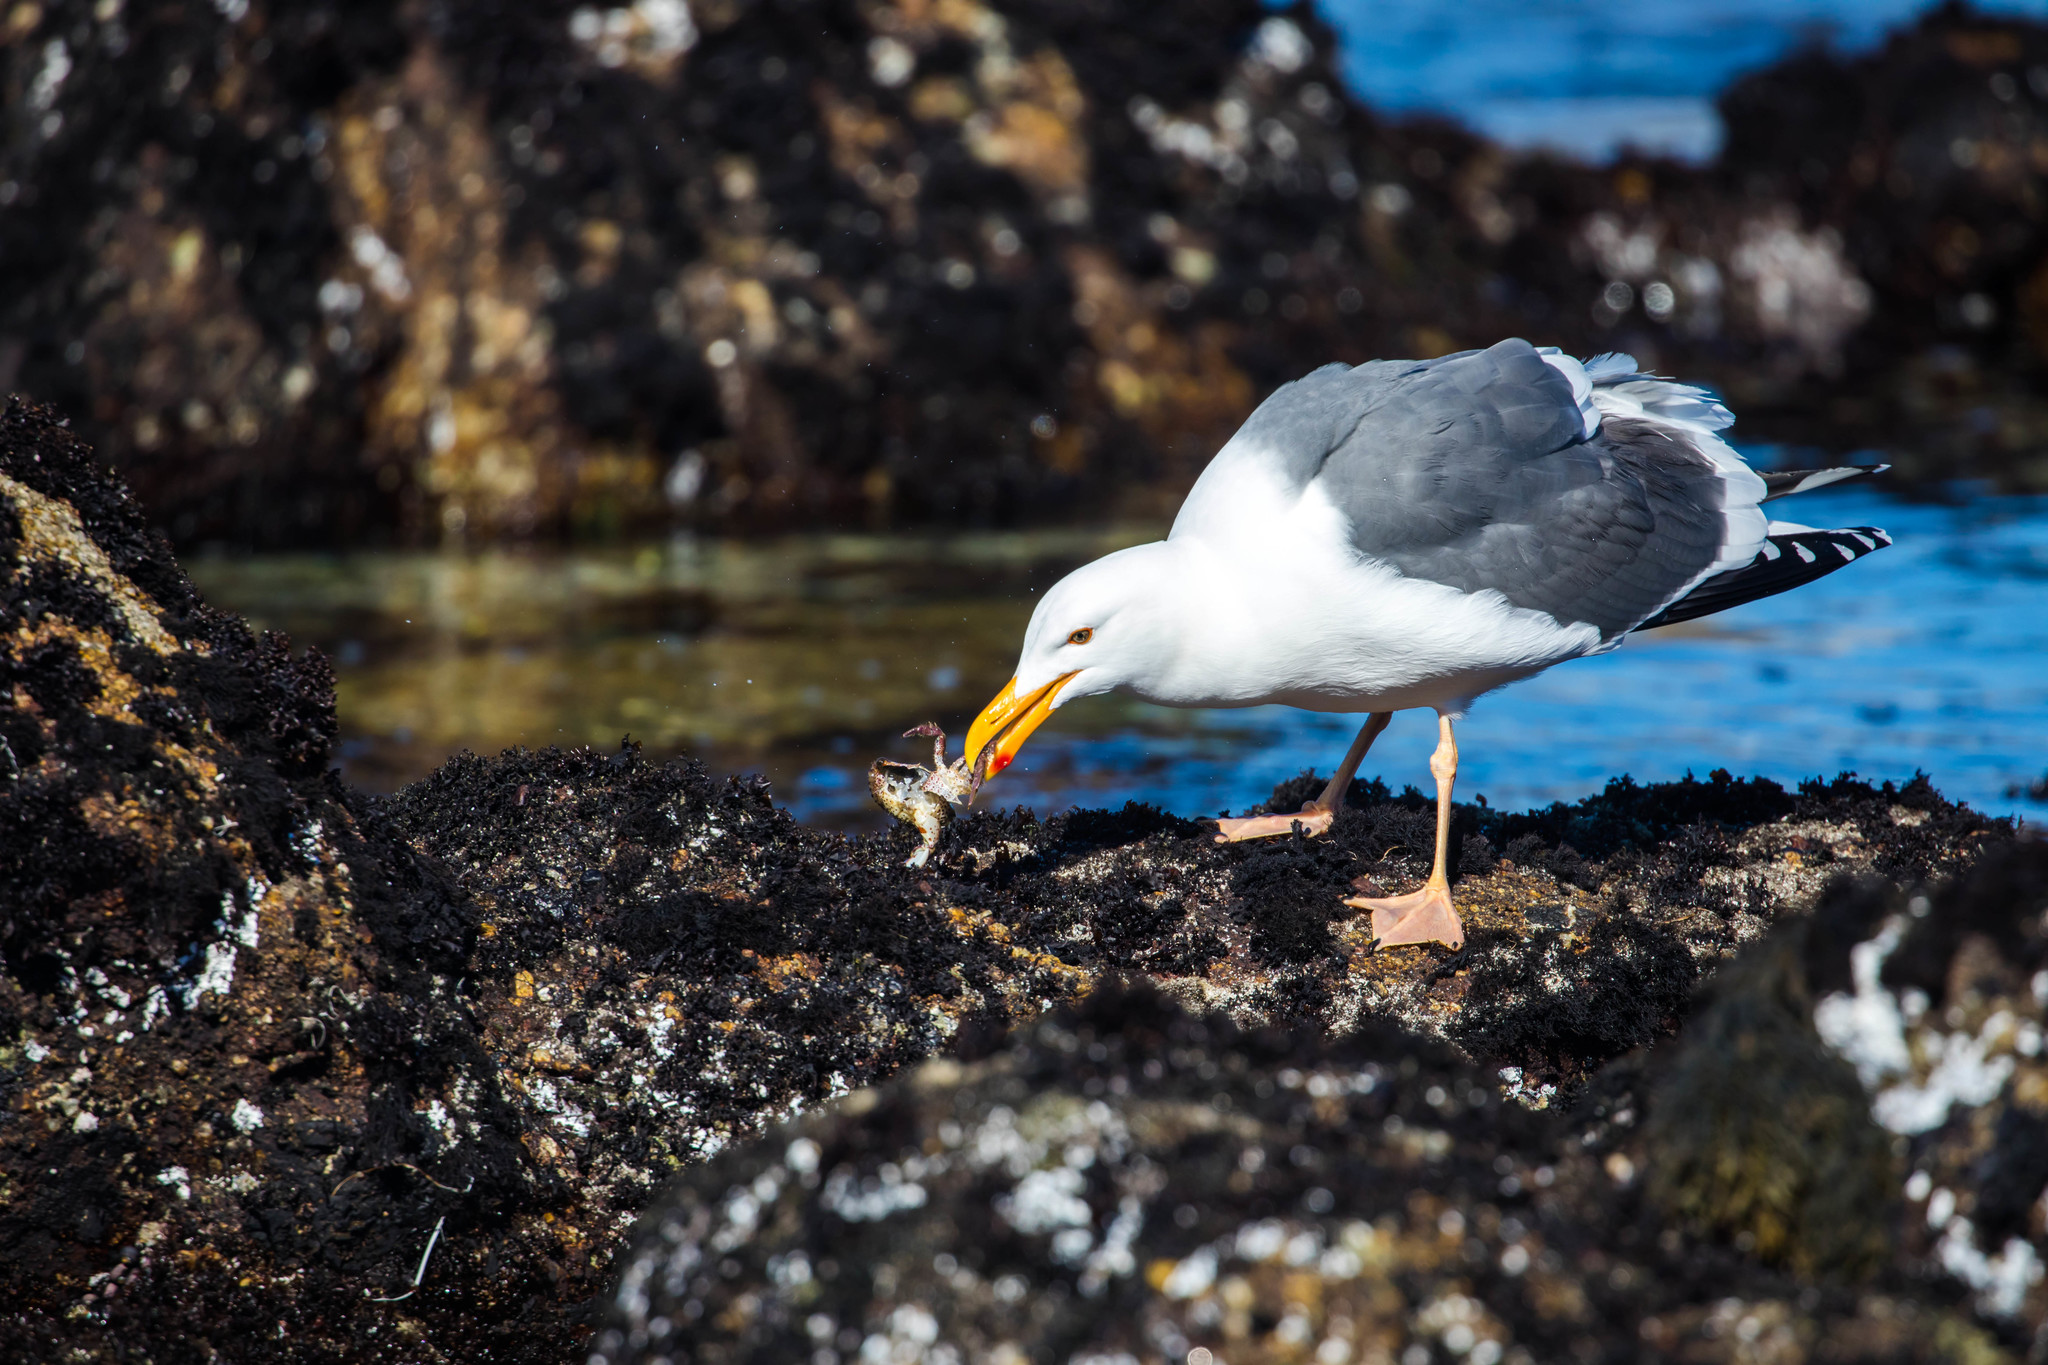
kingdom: Animalia
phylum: Chordata
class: Aves
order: Charadriiformes
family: Laridae
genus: Larus
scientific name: Larus occidentalis
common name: Western gull
